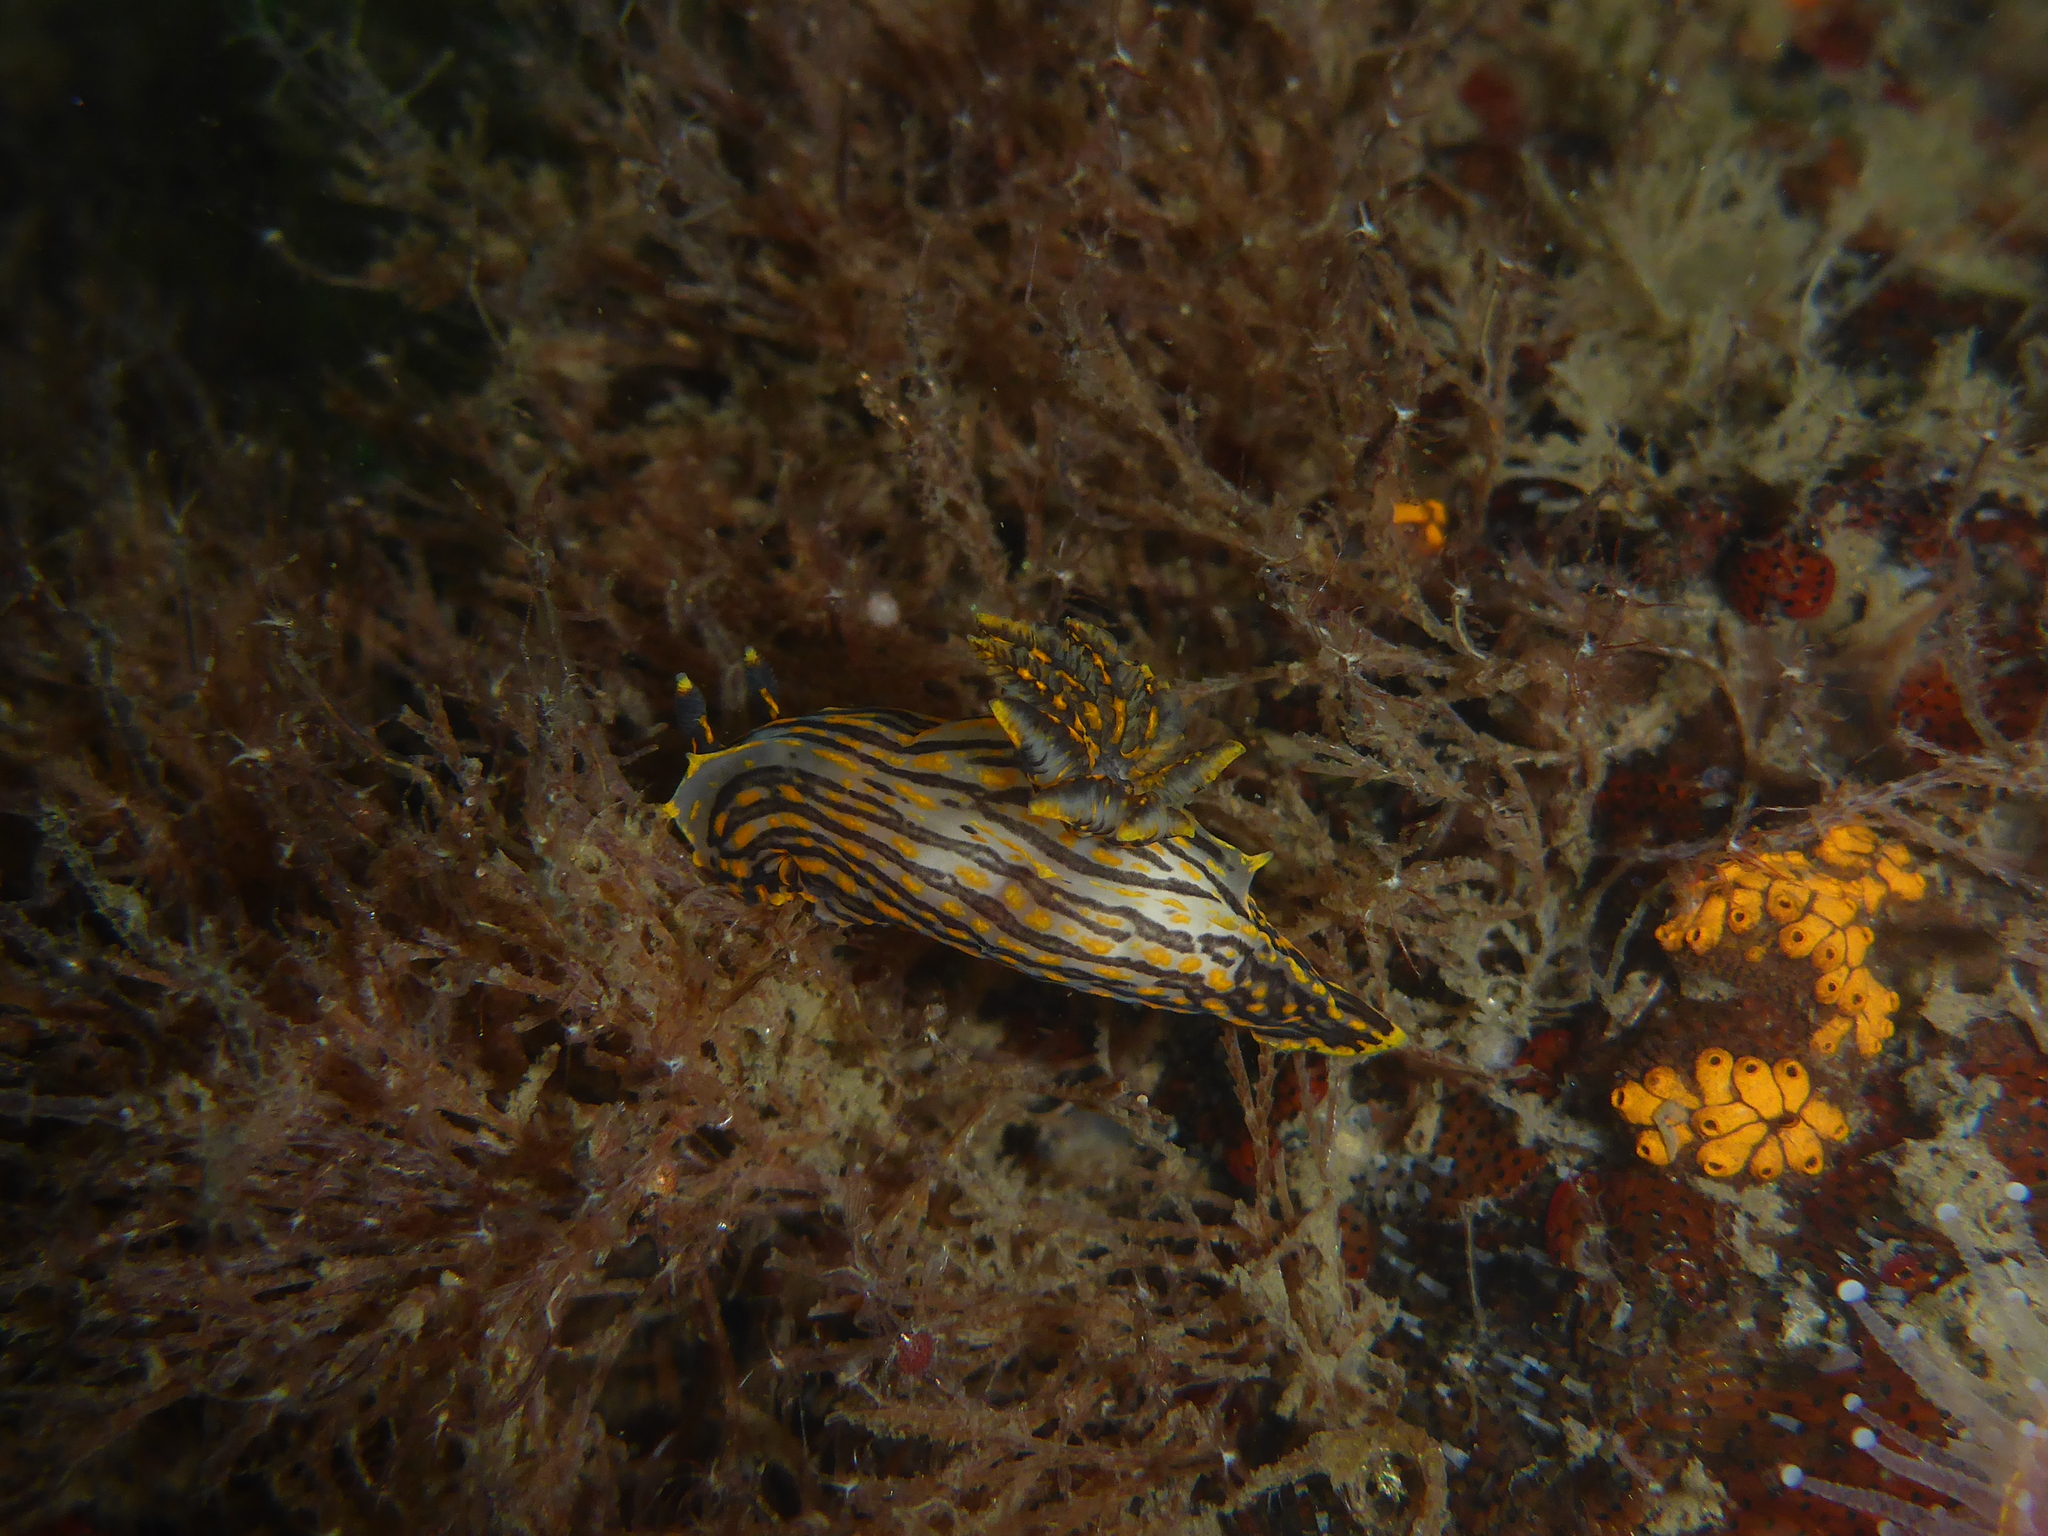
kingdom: Animalia
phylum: Mollusca
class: Gastropoda
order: Nudibranchia
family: Polyceridae
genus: Polycera
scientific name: Polycera atra
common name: Orange-spike polycera
